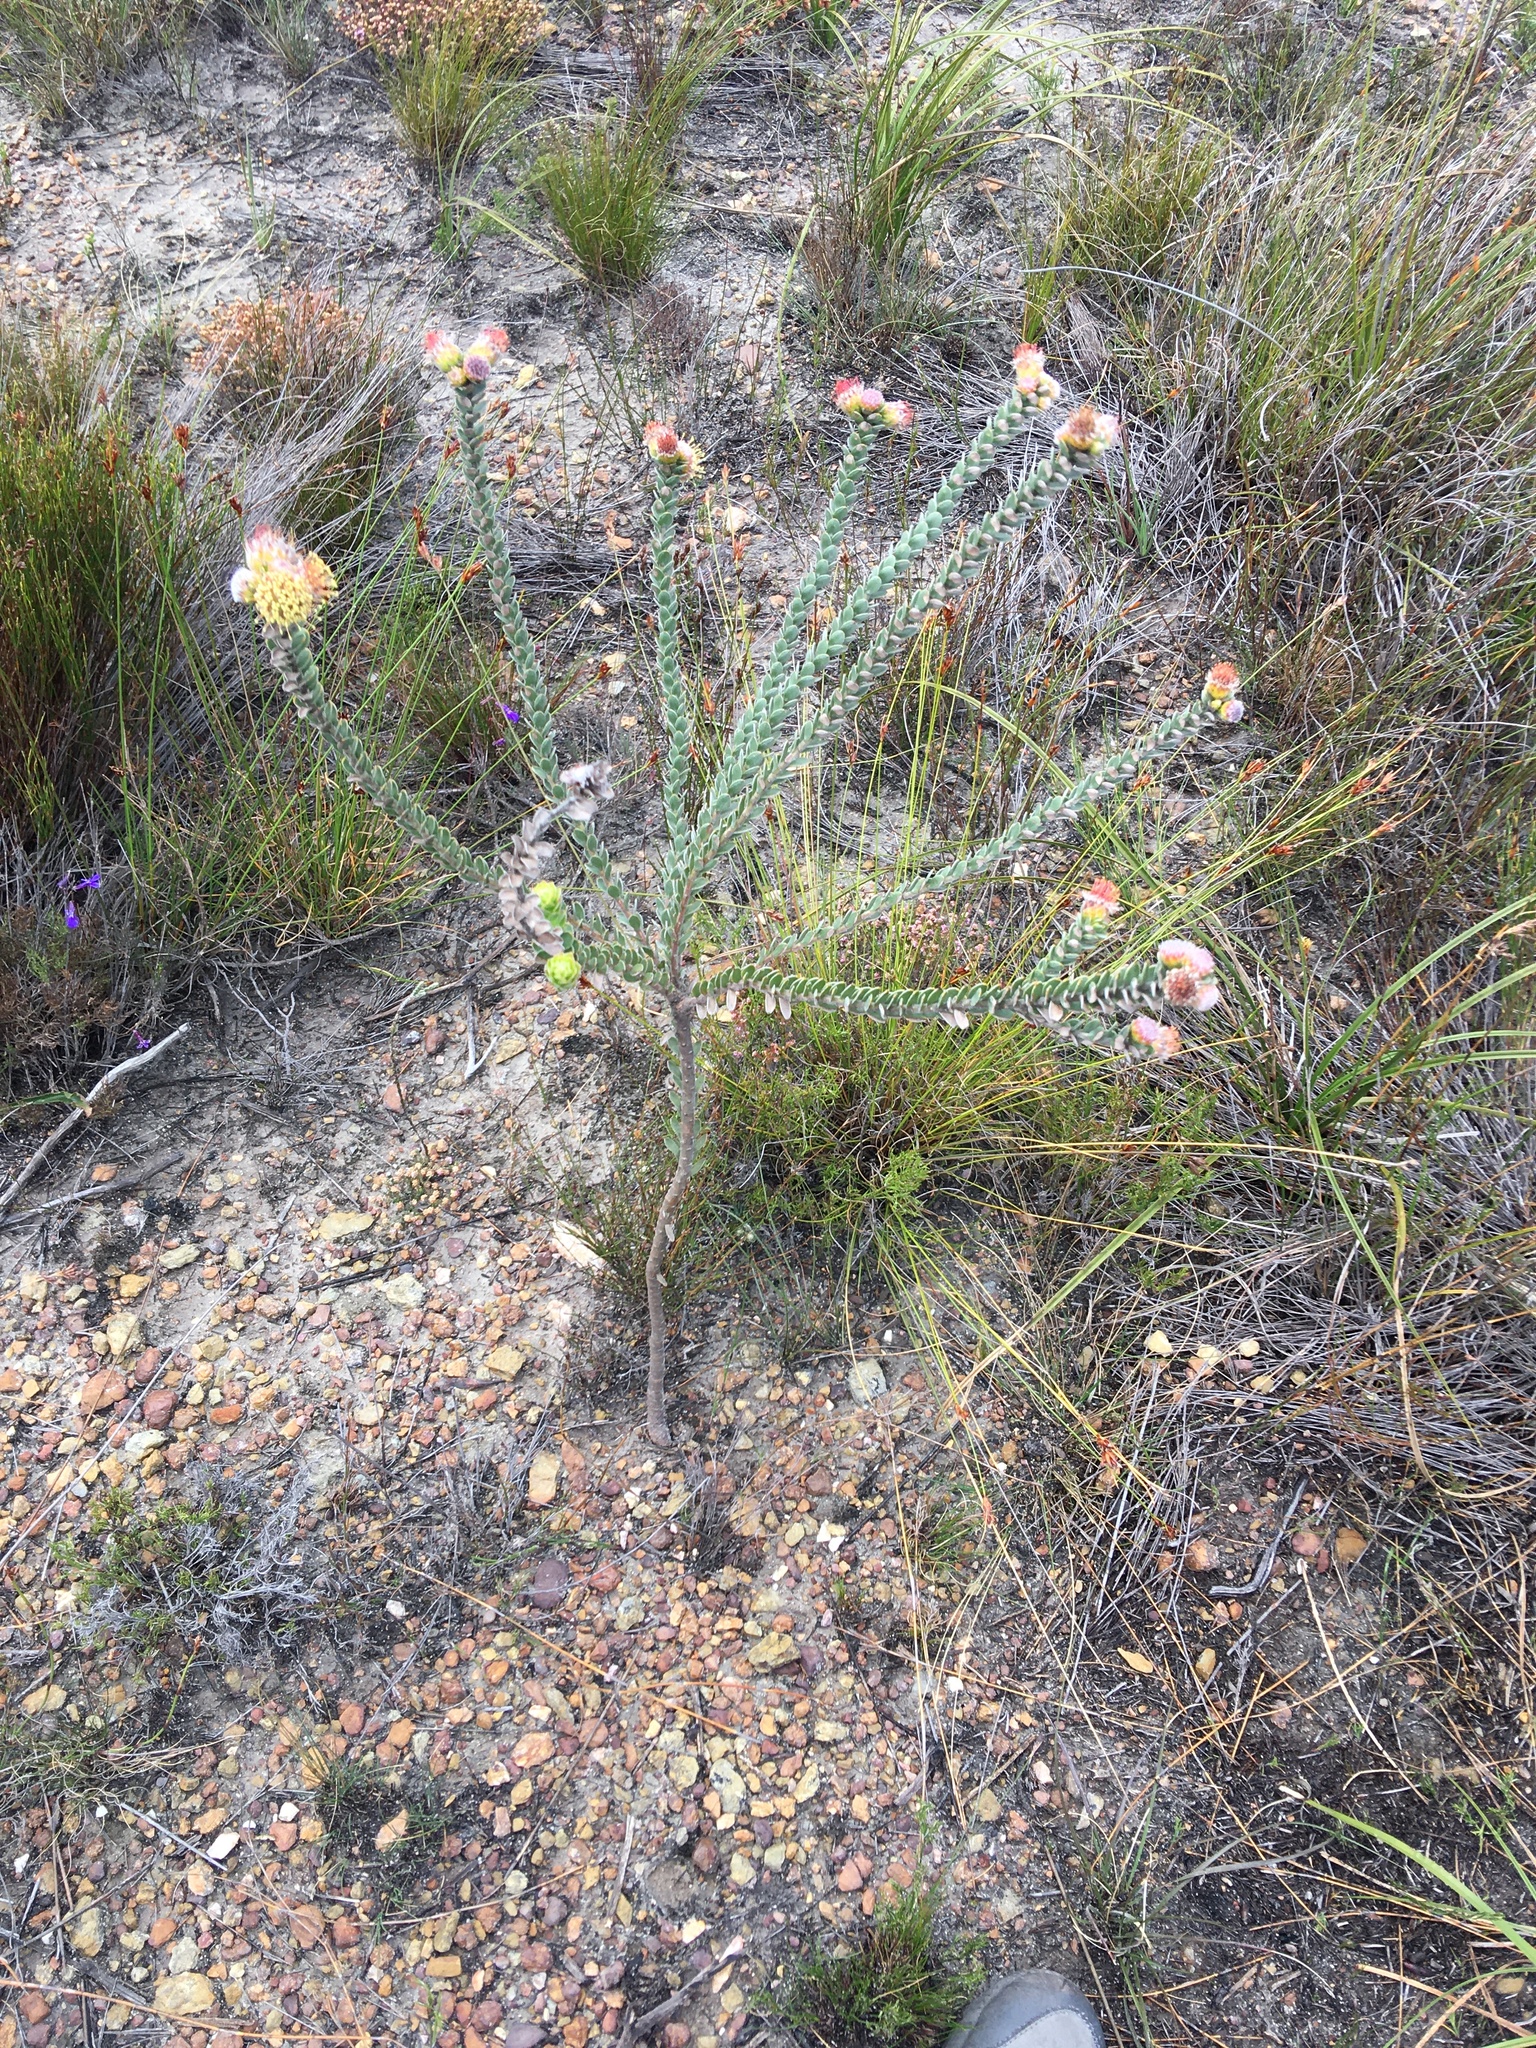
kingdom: Plantae
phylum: Tracheophyta
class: Magnoliopsida
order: Proteales
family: Proteaceae
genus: Leucospermum
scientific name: Leucospermum truncatulum
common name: Oval-leaf pincushion
